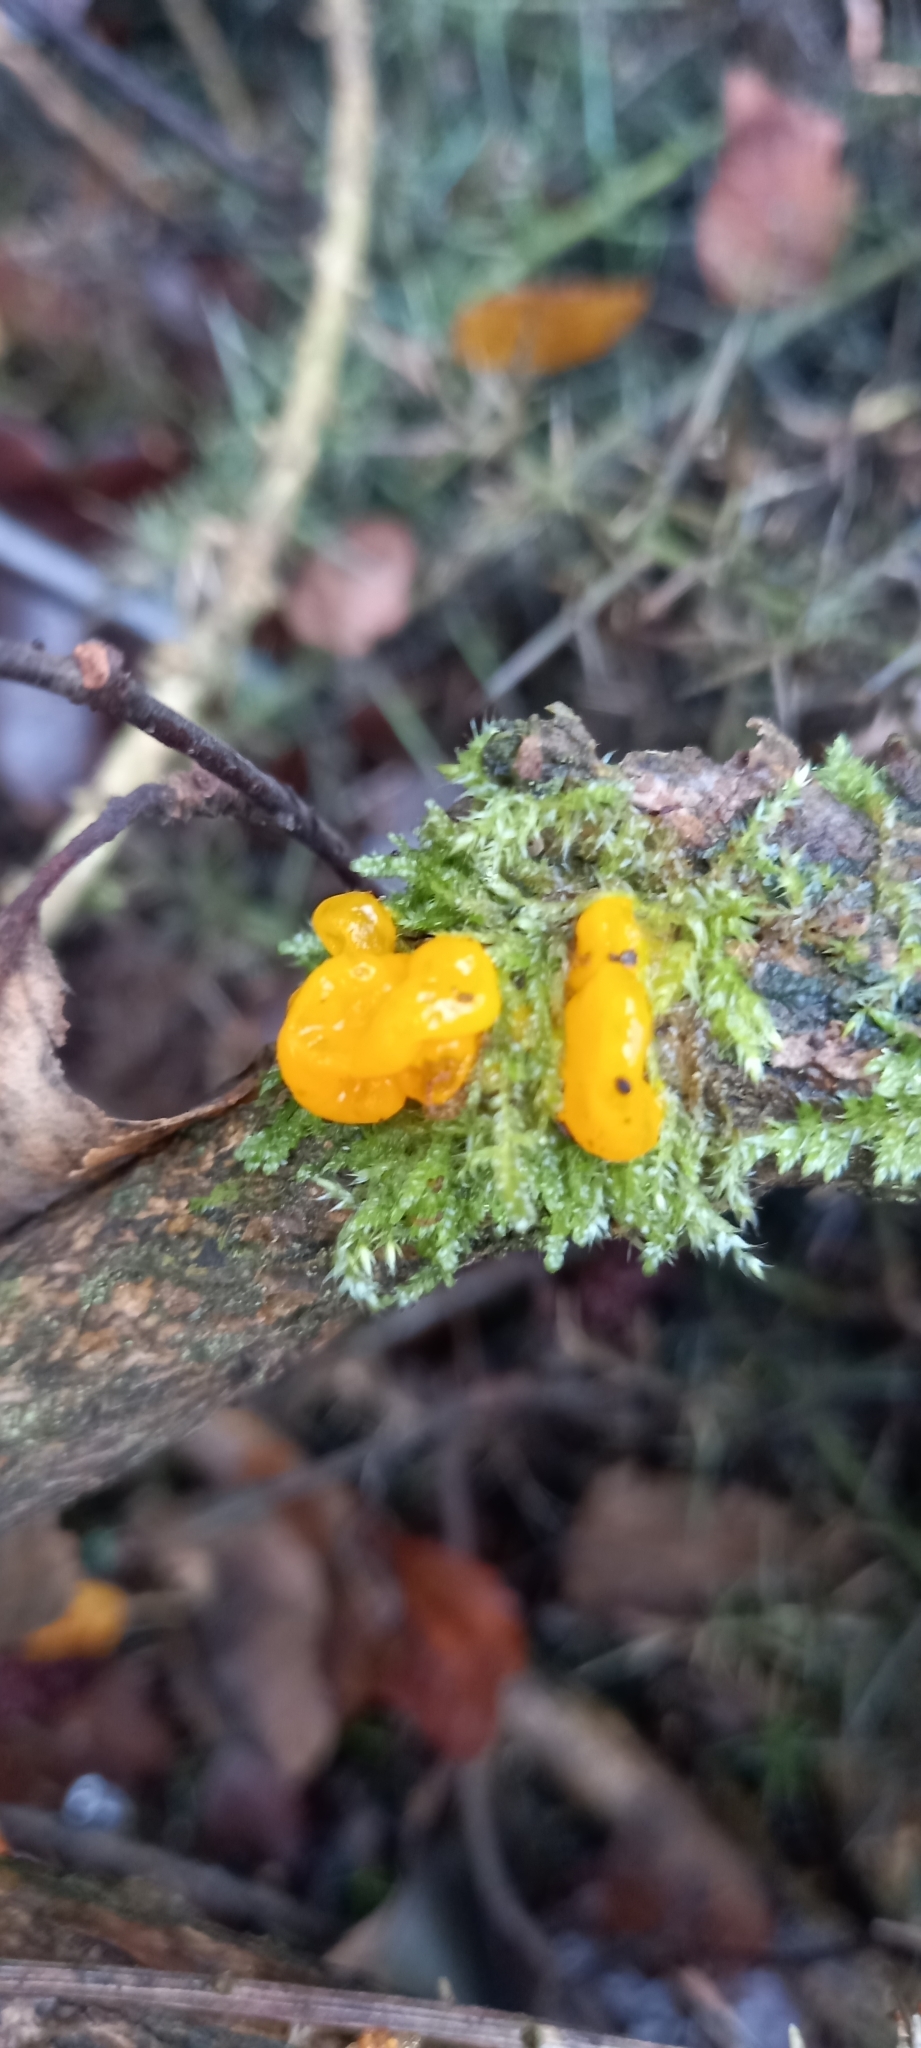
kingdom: Fungi
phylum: Basidiomycota
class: Tremellomycetes
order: Tremellales
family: Tremellaceae
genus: Tremella
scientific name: Tremella mesenterica
